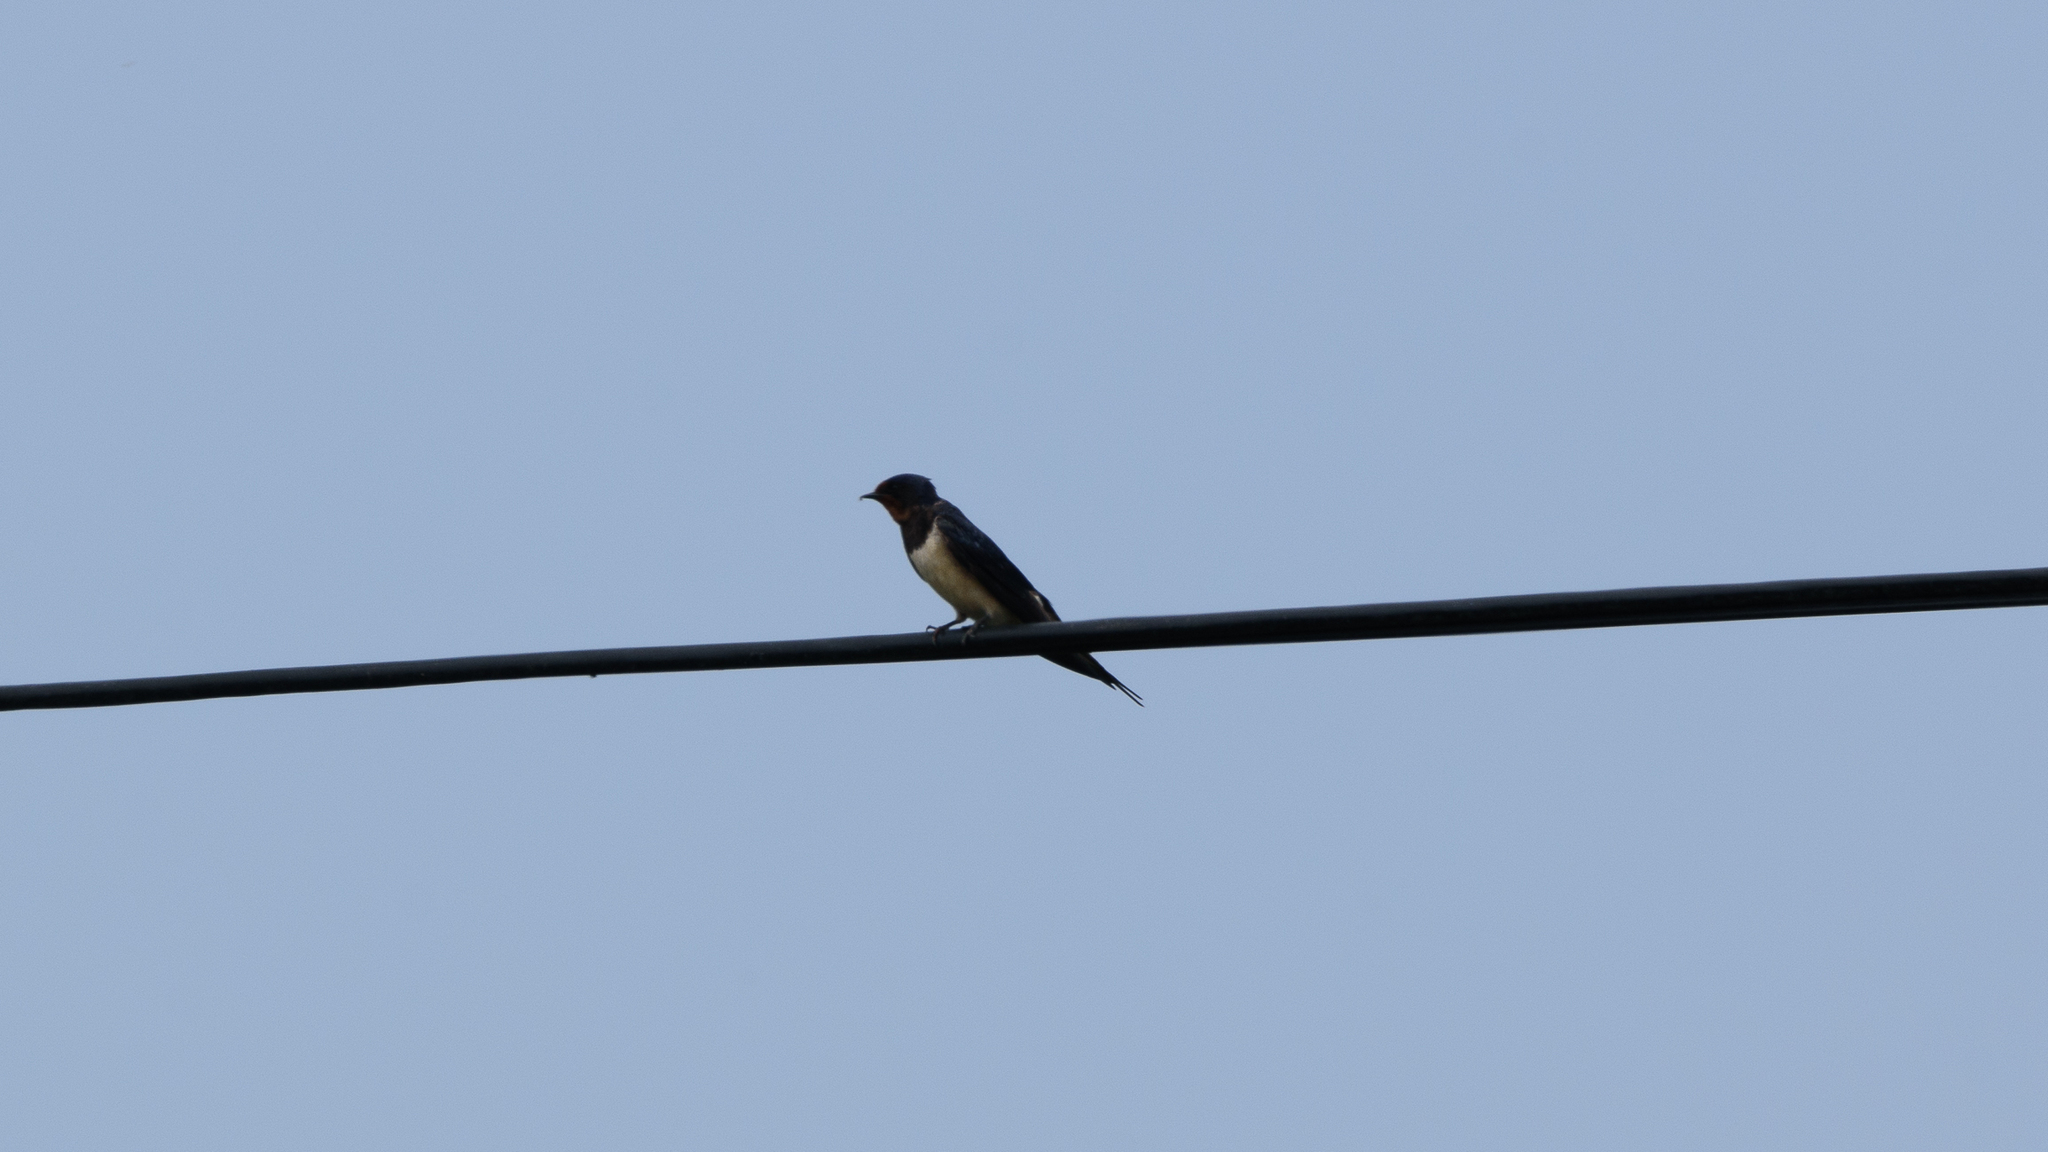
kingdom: Animalia
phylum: Chordata
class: Aves
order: Passeriformes
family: Hirundinidae
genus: Hirundo
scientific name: Hirundo rustica
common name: Barn swallow
